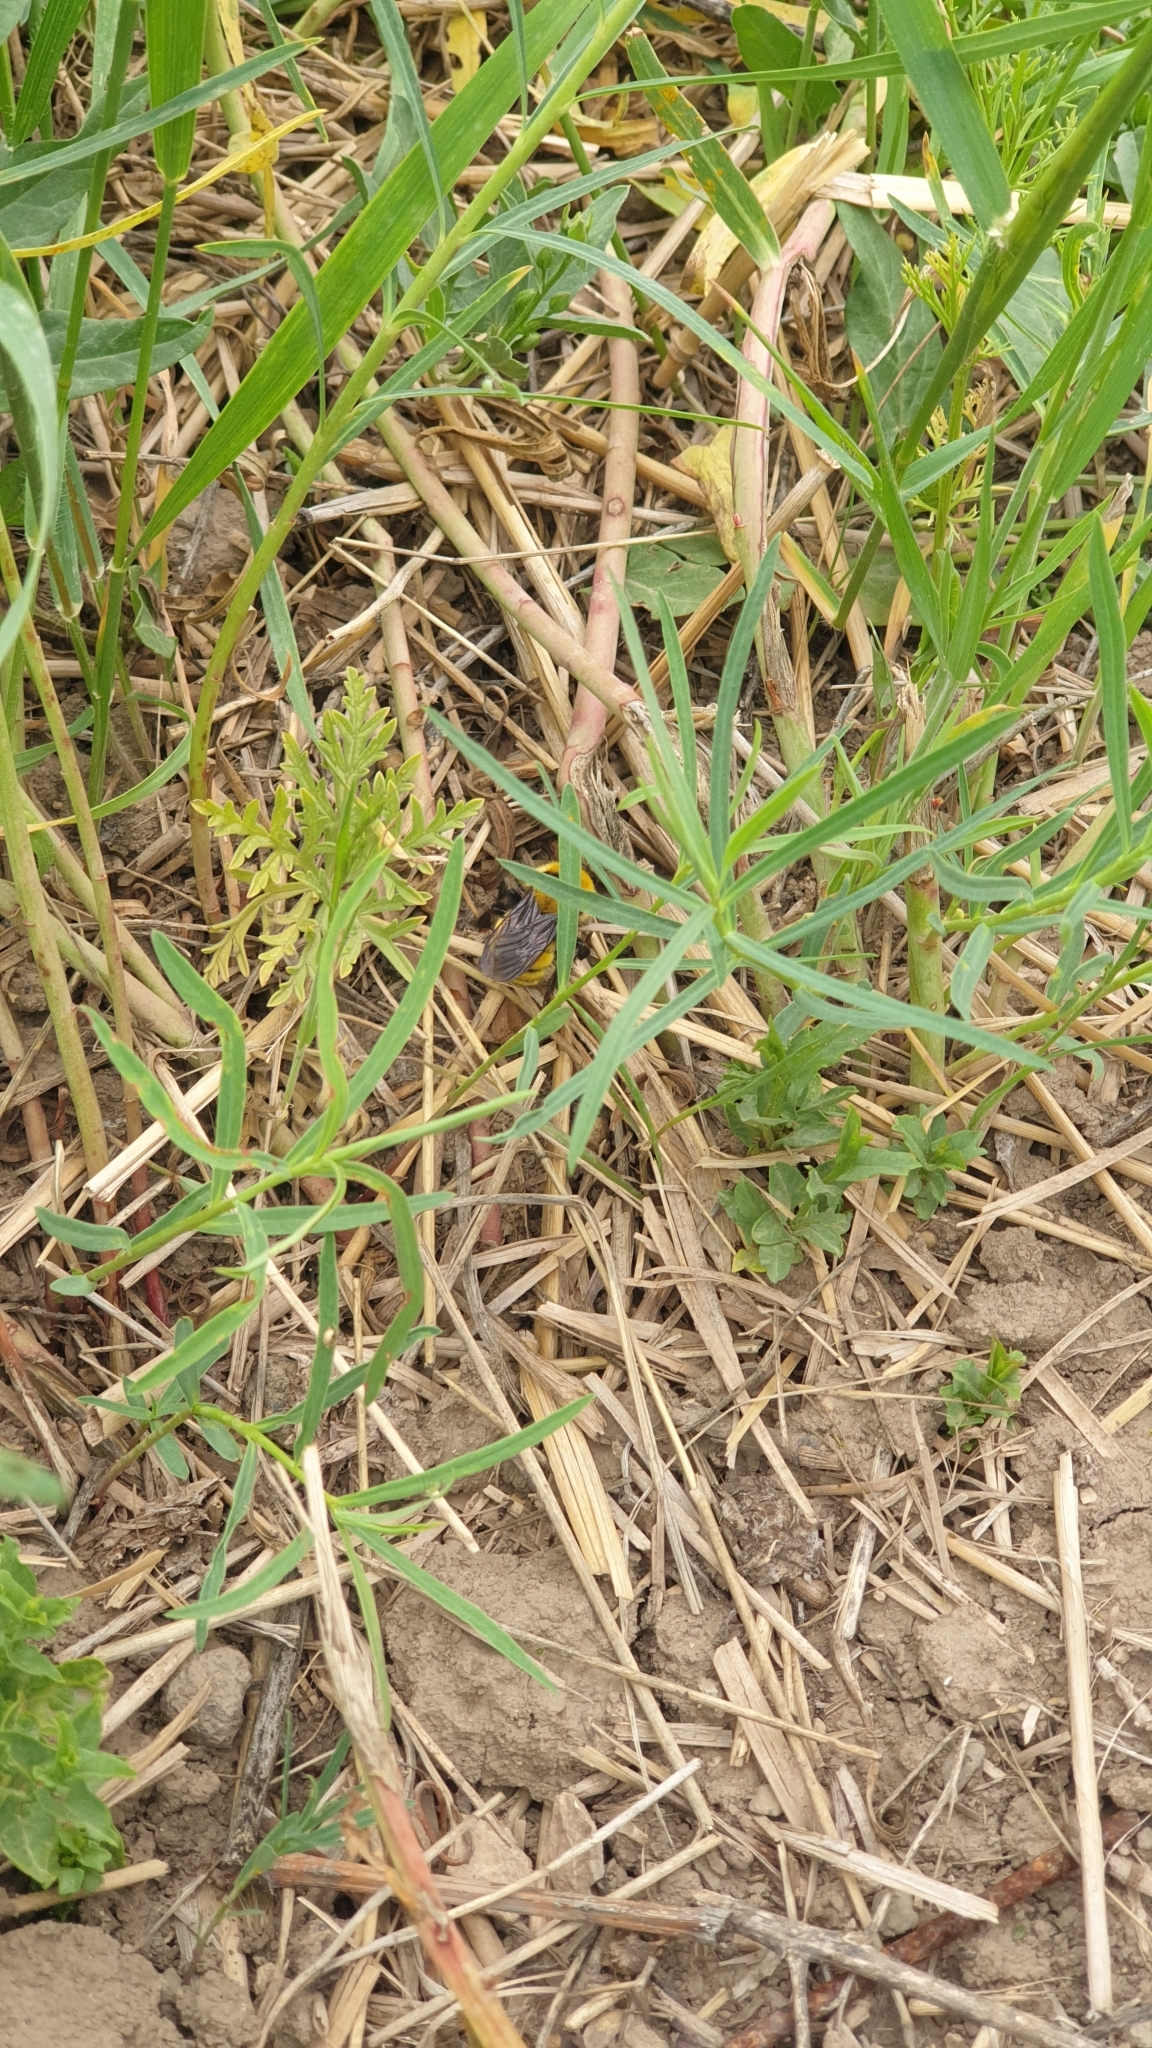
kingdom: Animalia
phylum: Arthropoda
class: Insecta
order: Hymenoptera
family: Apidae
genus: Bombus
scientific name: Bombus zonatus
